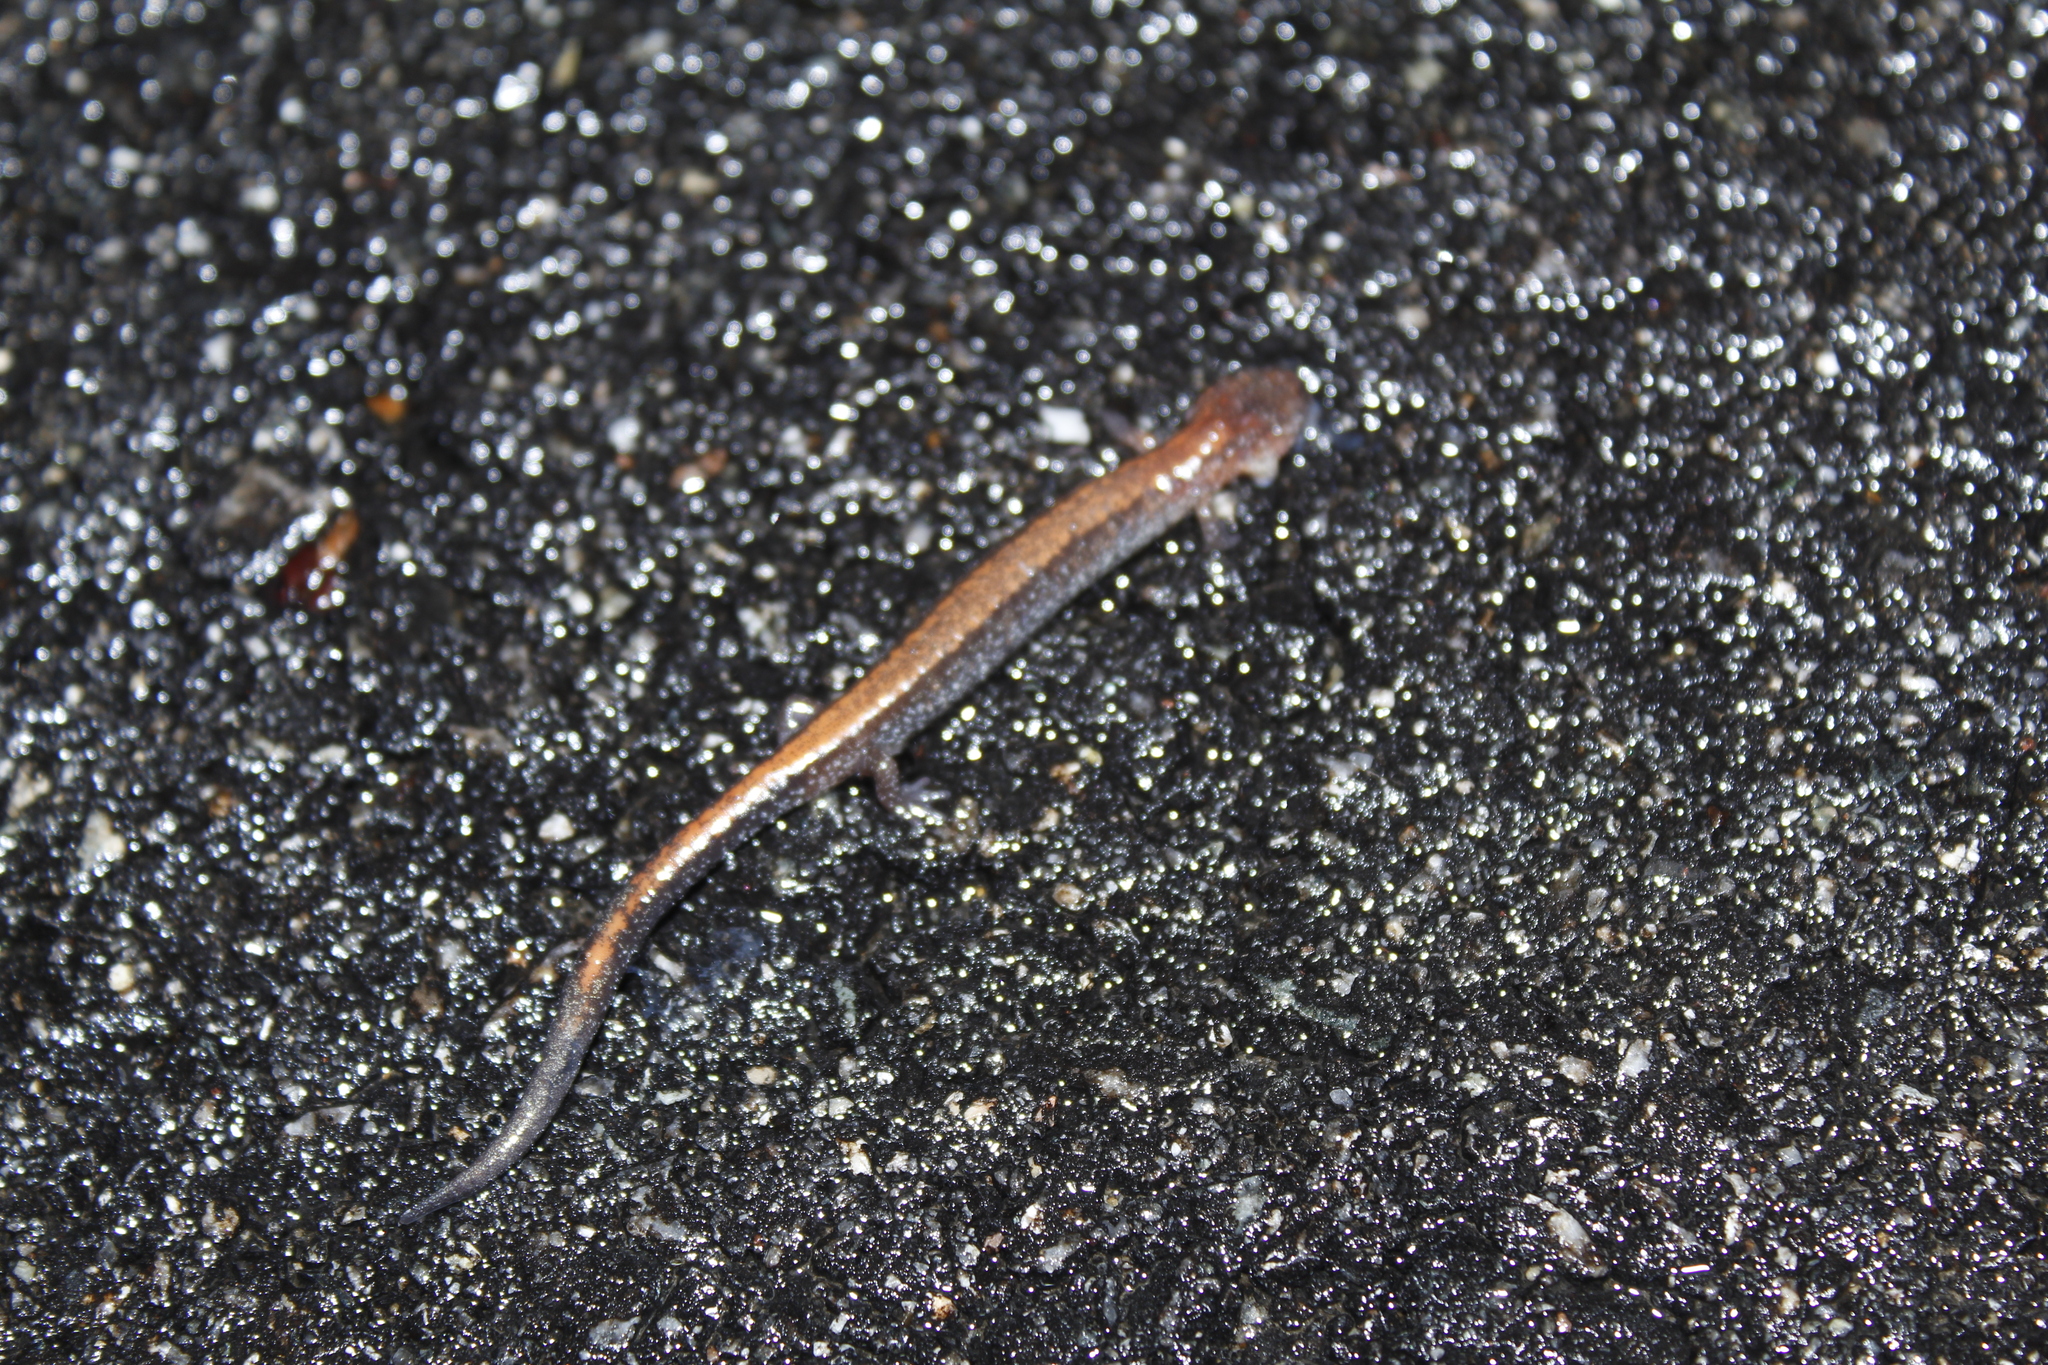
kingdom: Animalia
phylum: Chordata
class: Amphibia
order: Caudata
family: Plethodontidae
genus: Plethodon
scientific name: Plethodon cinereus
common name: Redback salamander
